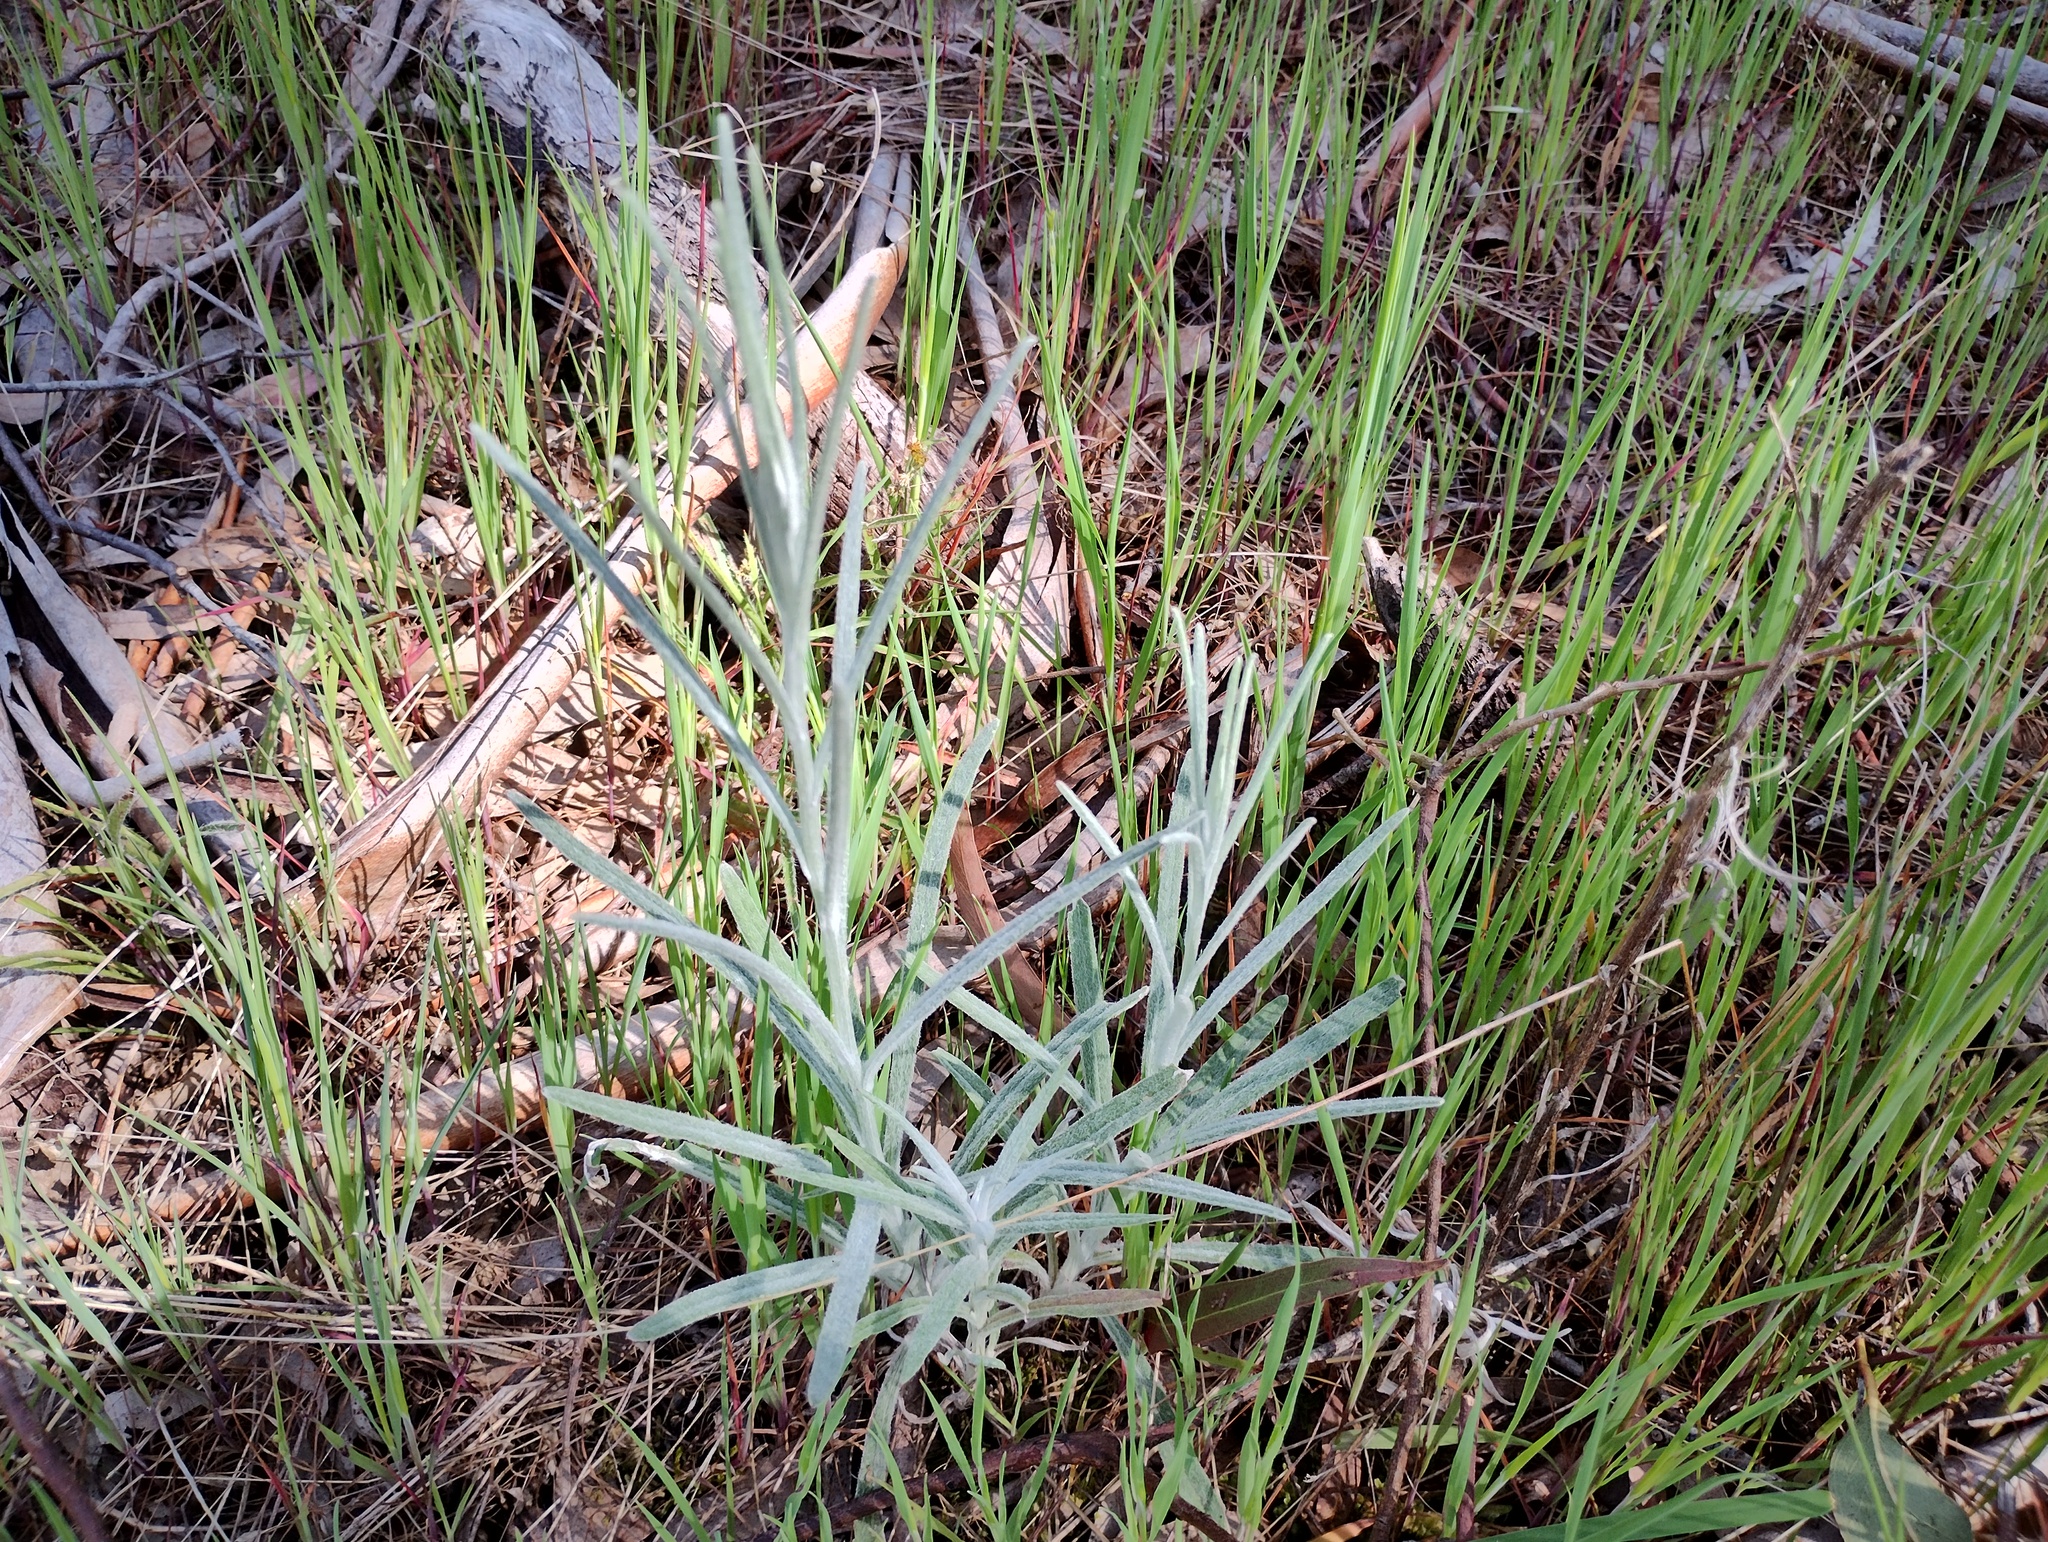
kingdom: Plantae
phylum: Tracheophyta
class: Magnoliopsida
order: Asterales
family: Asteraceae
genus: Senecio
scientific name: Senecio quadridentatus
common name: Cotton fireweed
